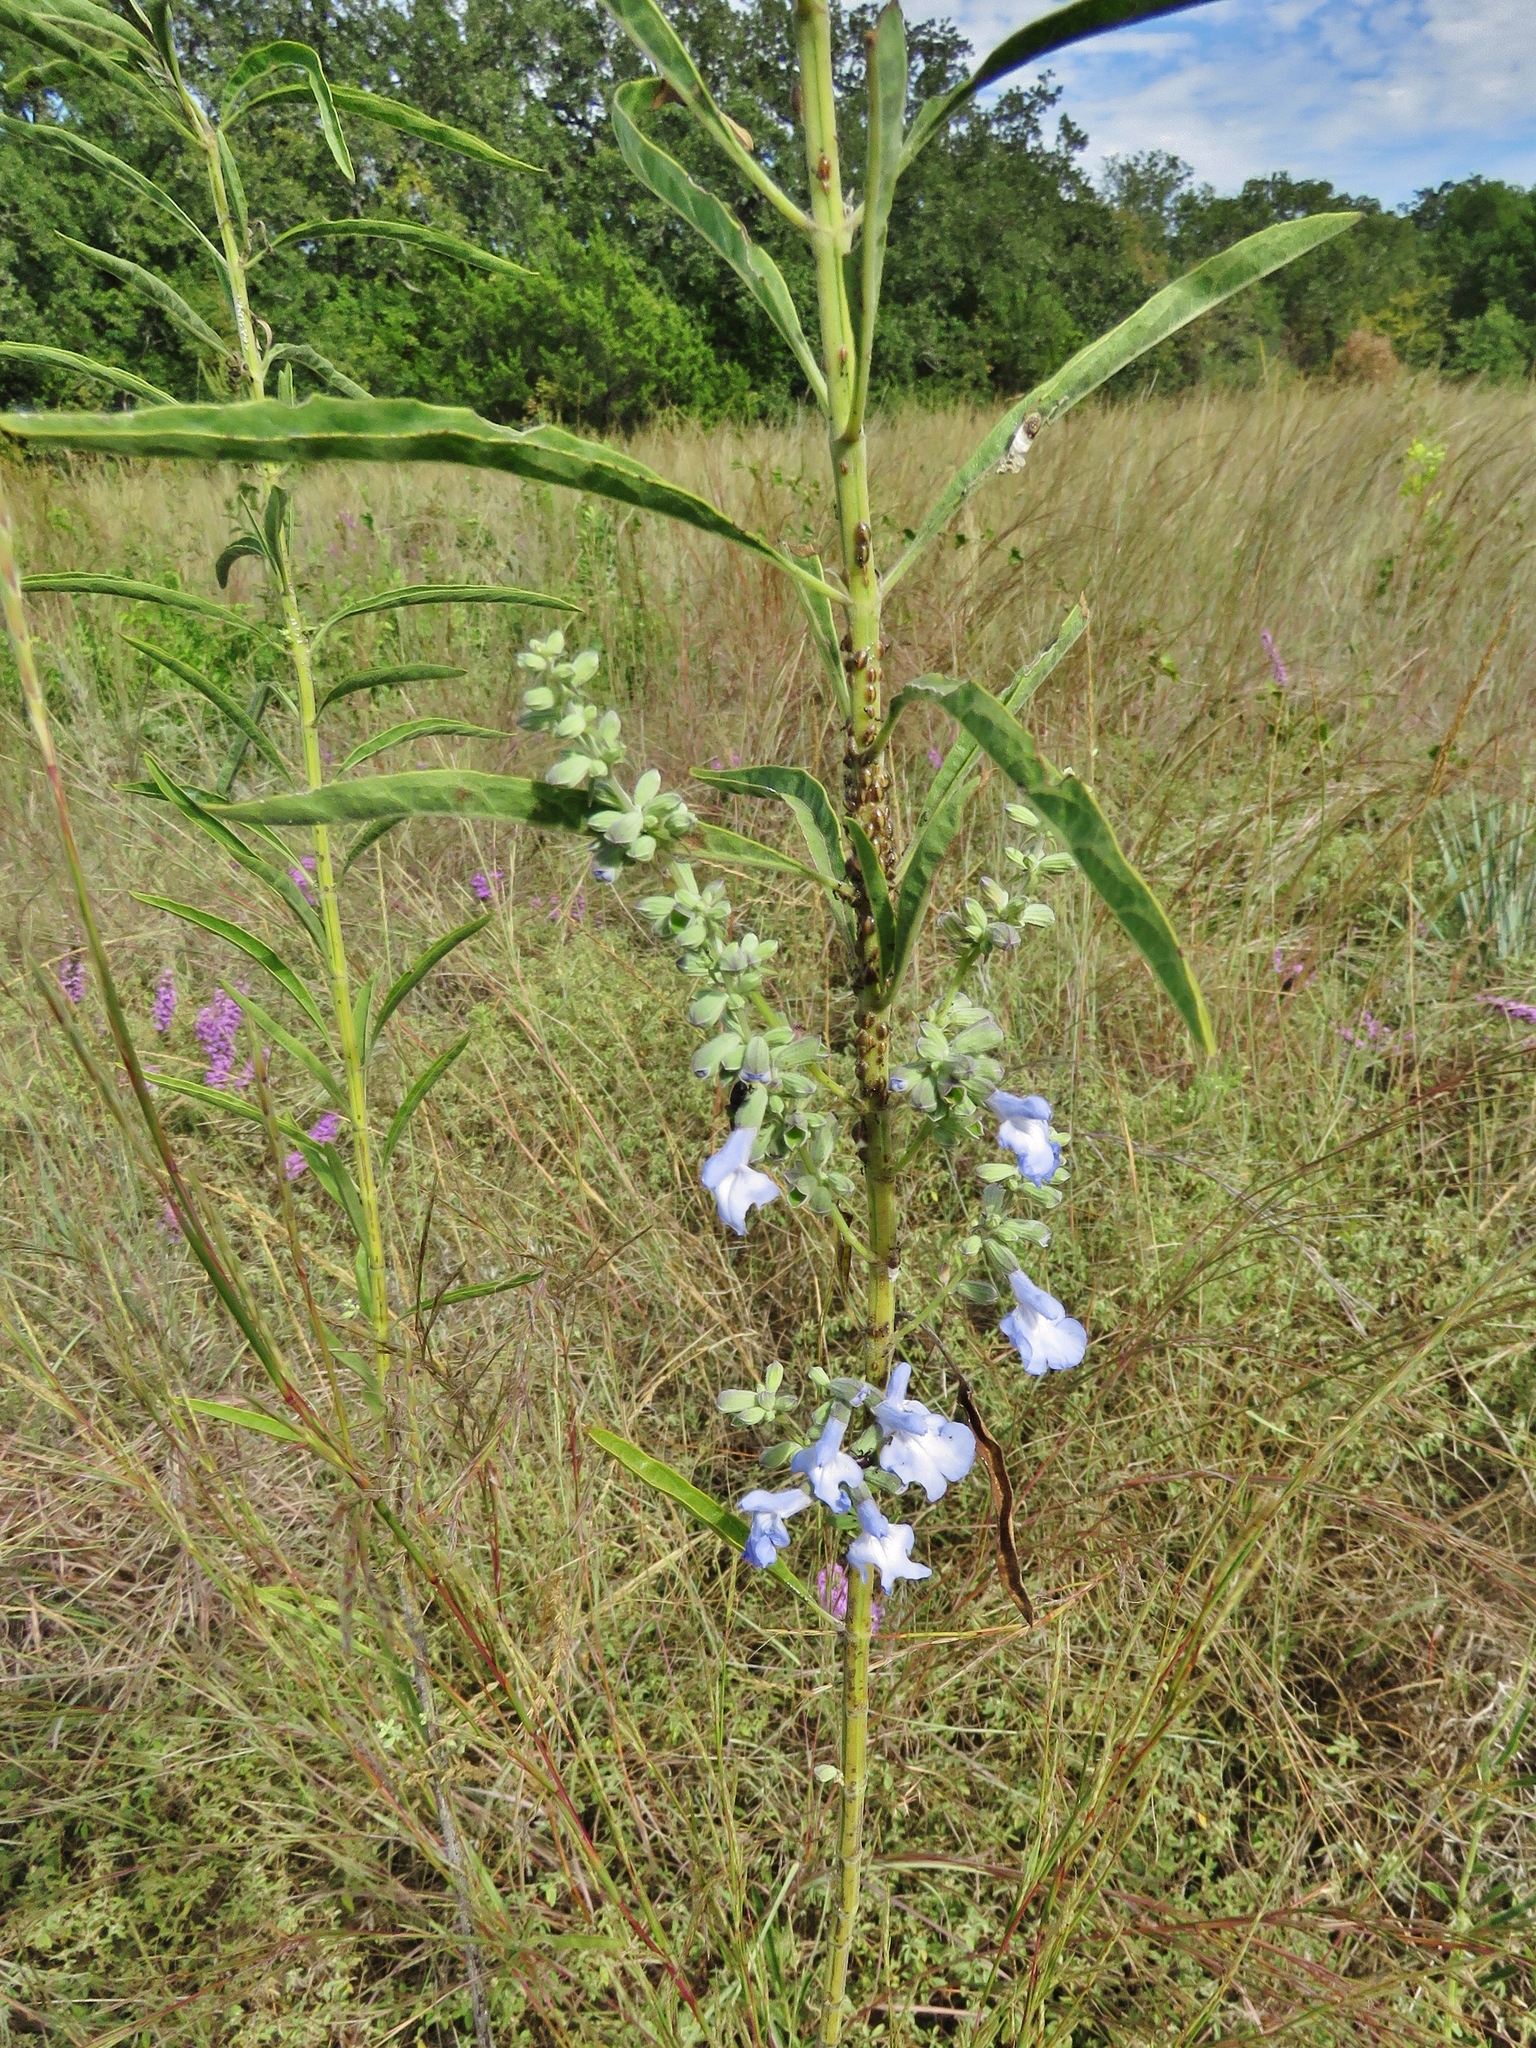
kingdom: Plantae
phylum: Tracheophyta
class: Magnoliopsida
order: Lamiales
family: Lamiaceae
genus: Salvia
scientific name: Salvia azurea
